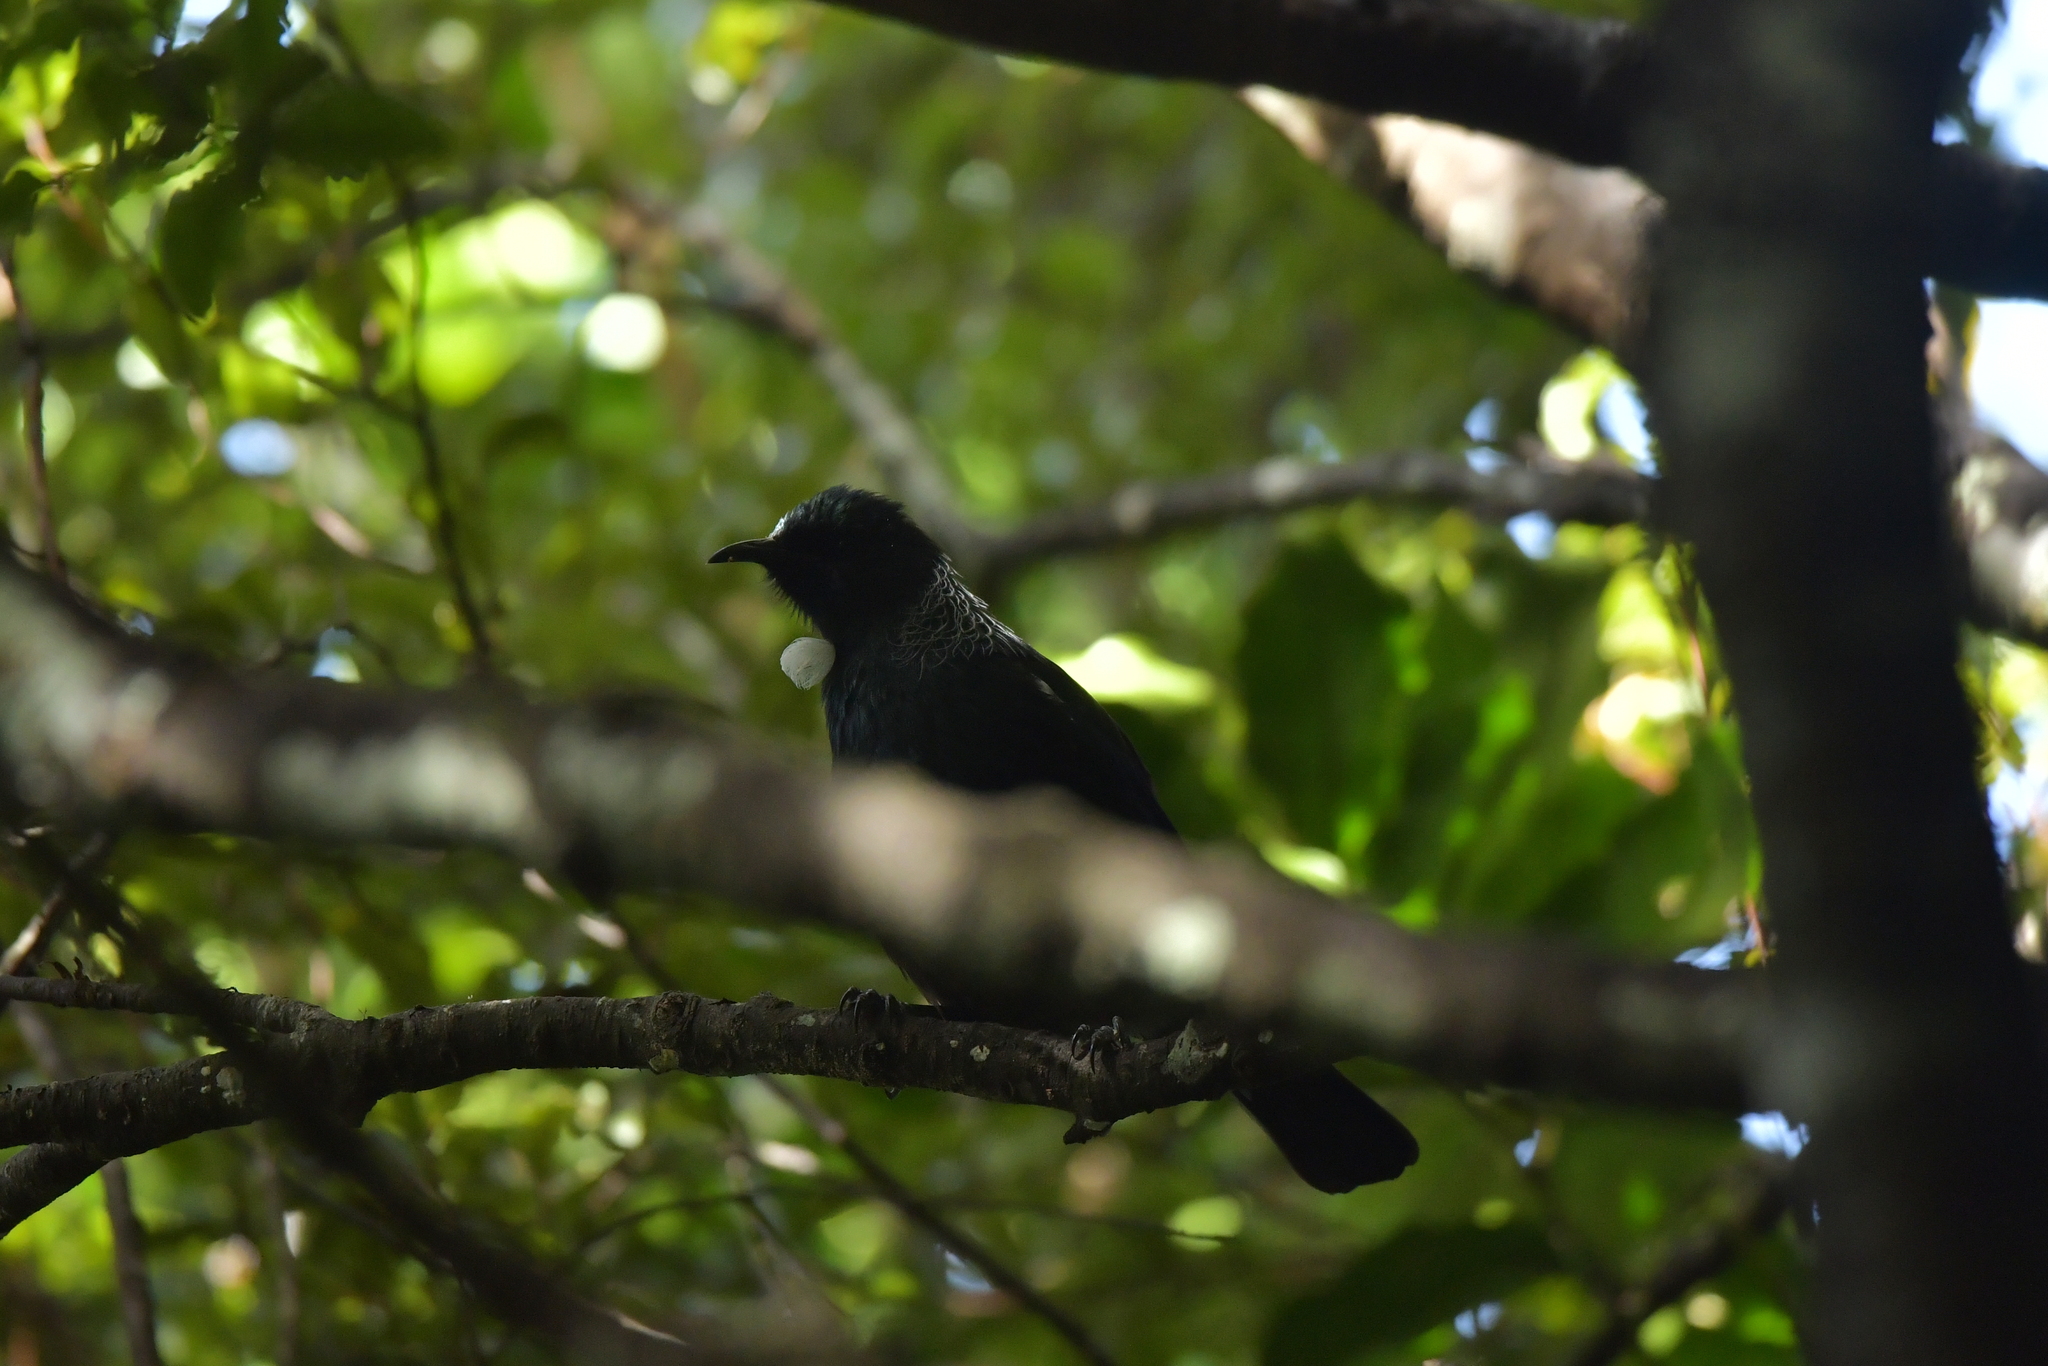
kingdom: Animalia
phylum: Chordata
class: Aves
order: Passeriformes
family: Meliphagidae
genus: Prosthemadera
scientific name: Prosthemadera novaeseelandiae
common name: Tui
